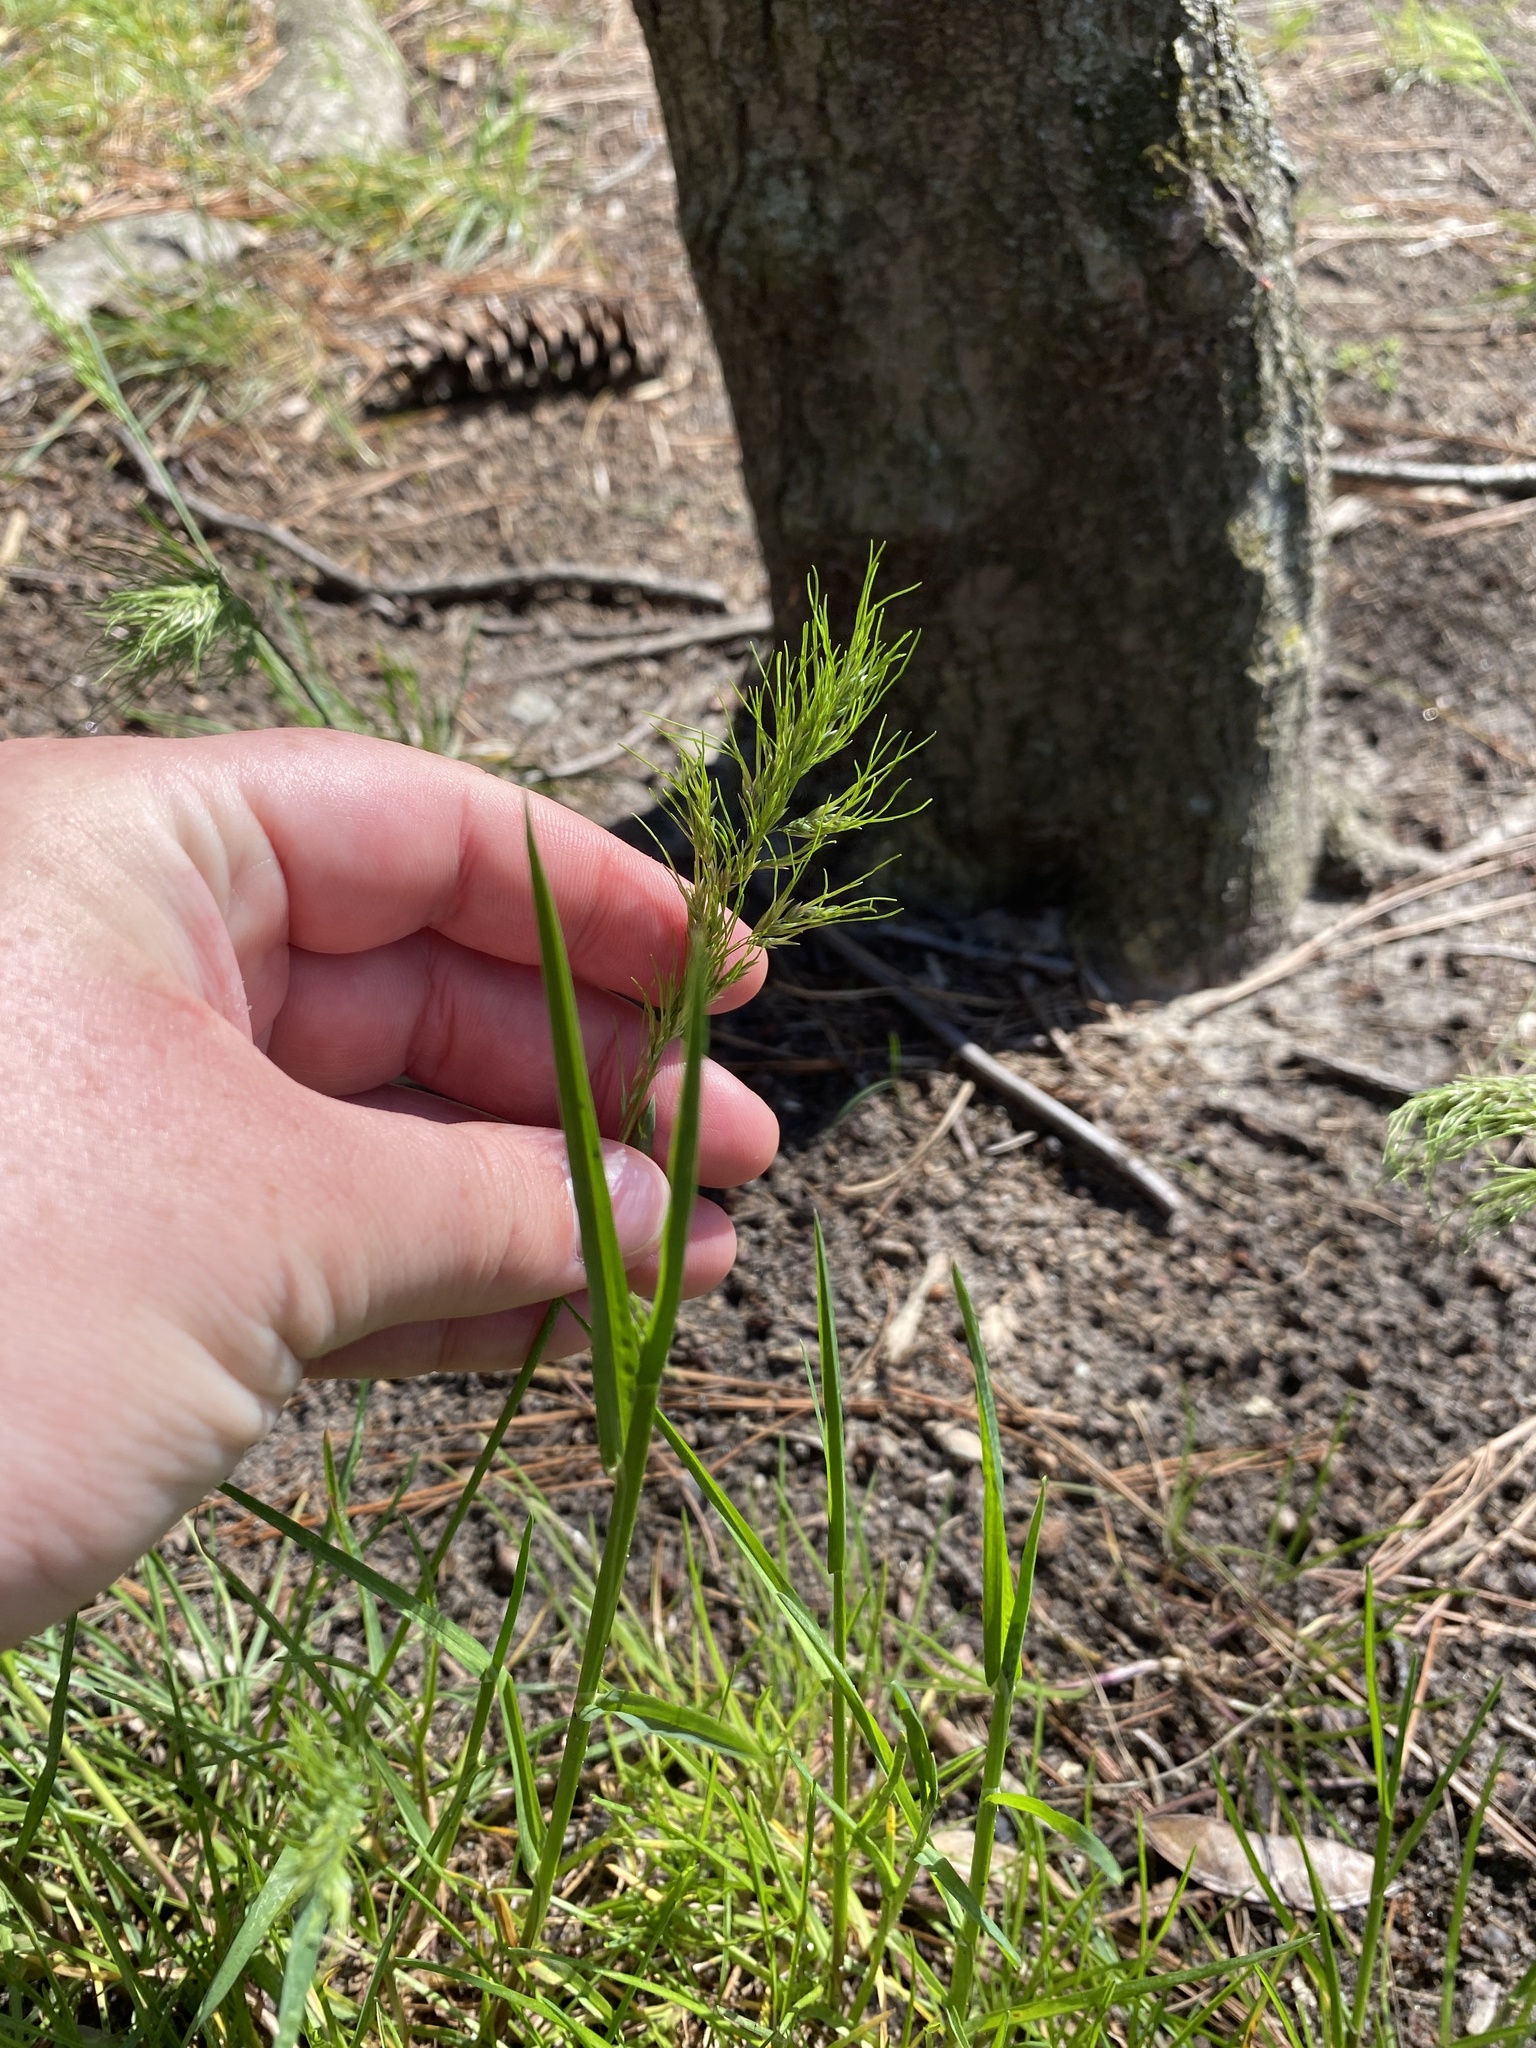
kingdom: Plantae
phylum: Tracheophyta
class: Liliopsida
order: Poales
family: Poaceae
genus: Poa
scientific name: Poa bulbosa
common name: Bulbous bluegrass
